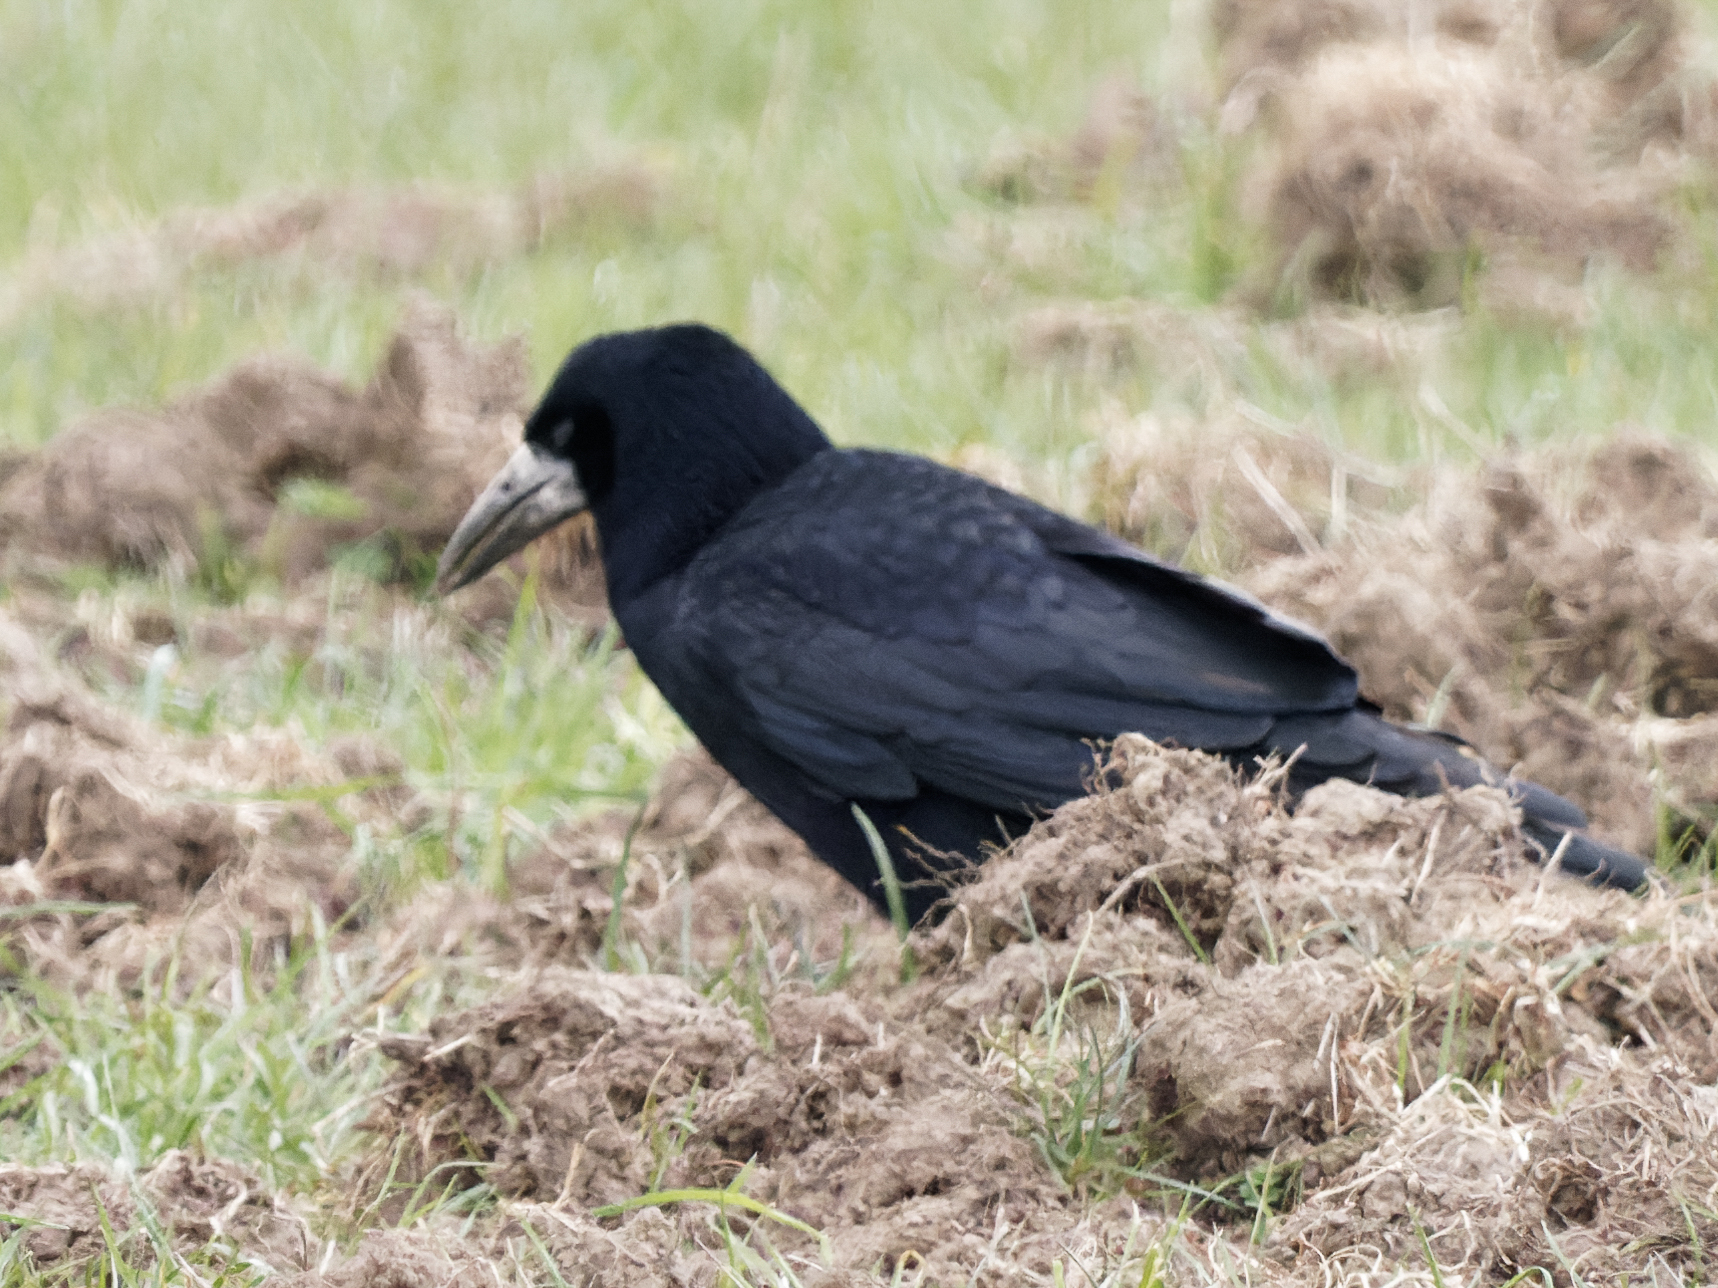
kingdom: Animalia
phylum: Chordata
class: Aves
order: Passeriformes
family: Corvidae
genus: Corvus
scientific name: Corvus frugilegus
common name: Rook
